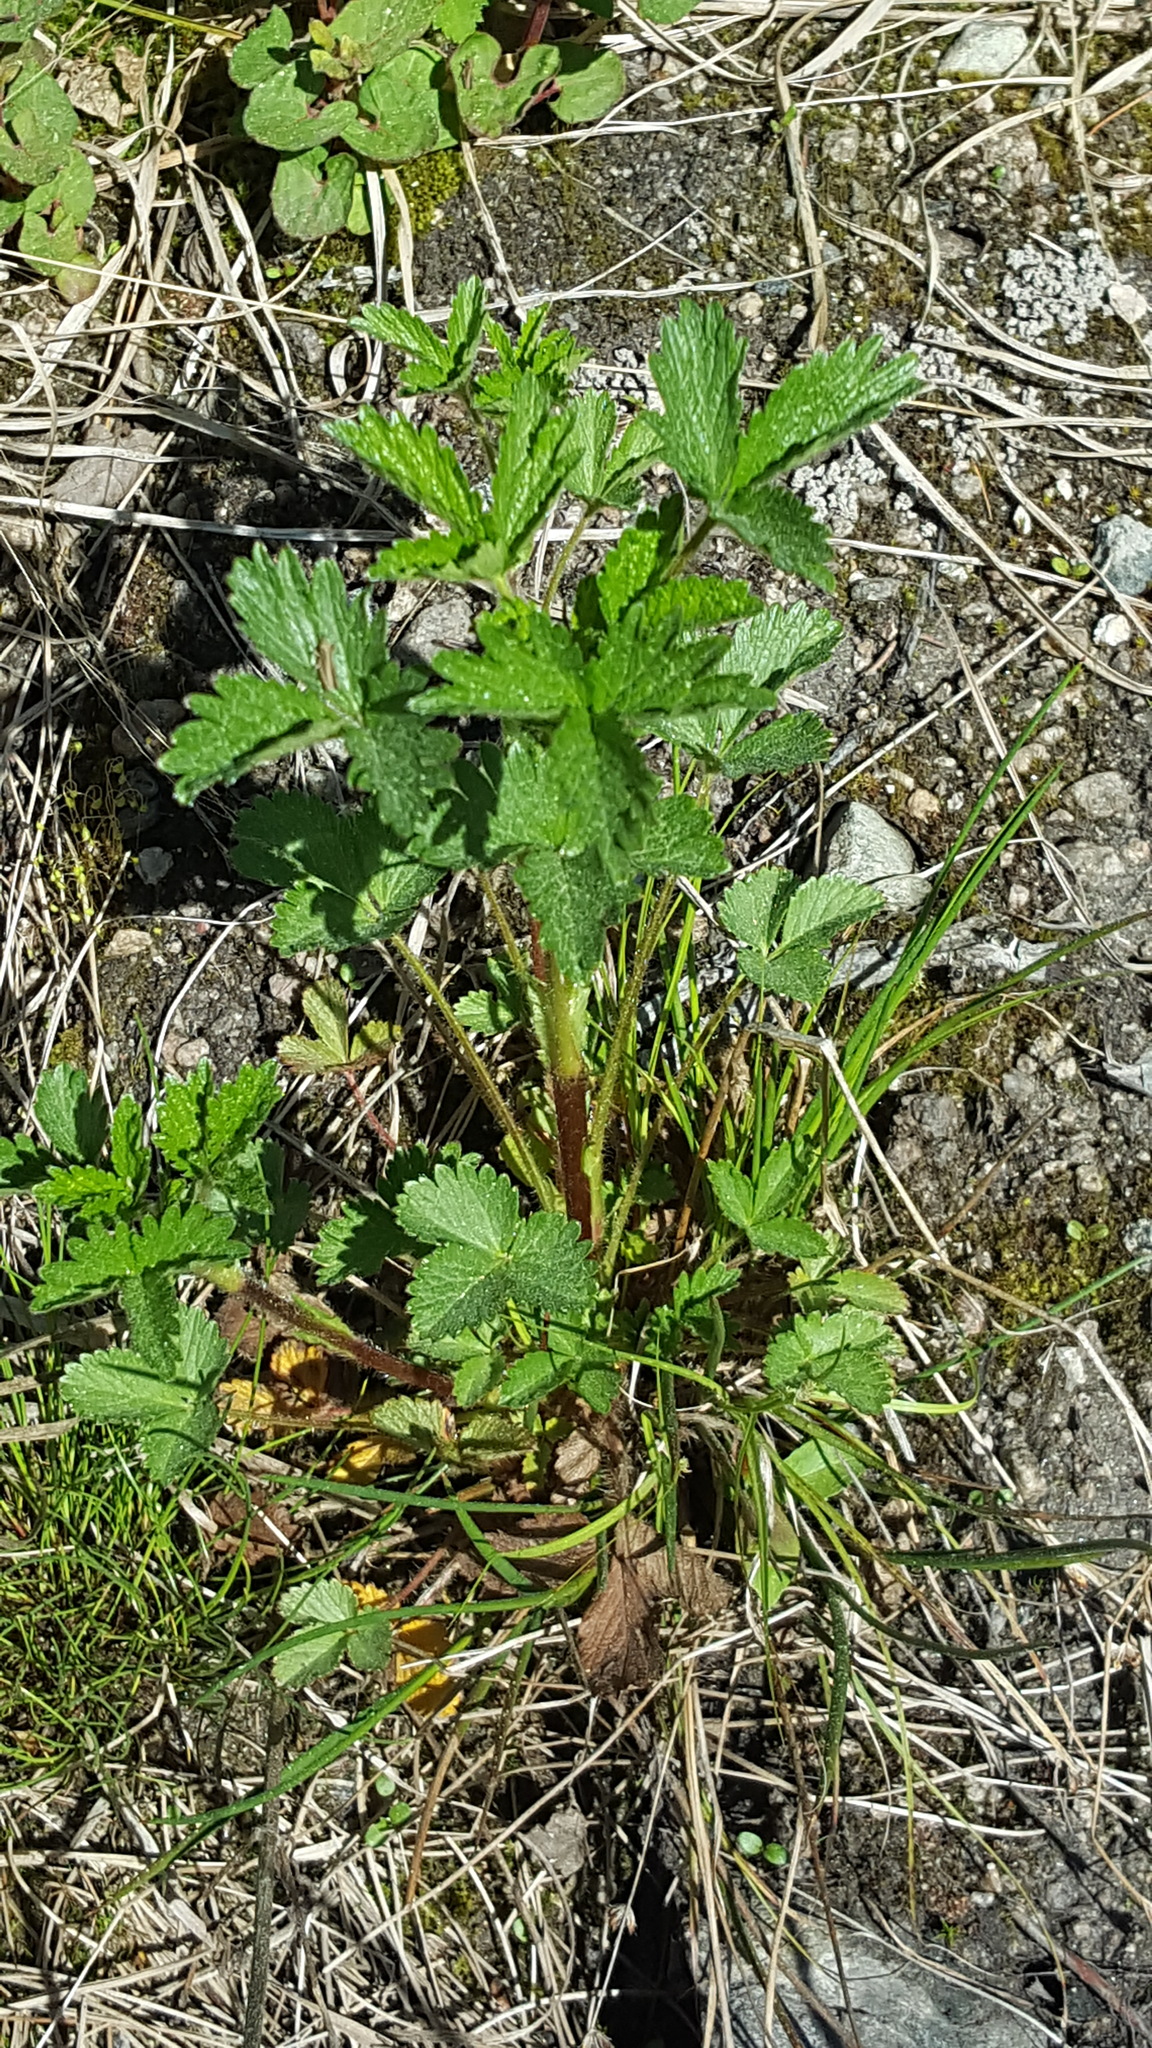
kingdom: Plantae
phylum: Tracheophyta
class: Magnoliopsida
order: Rosales
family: Rosaceae
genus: Potentilla
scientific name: Potentilla norvegica
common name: Ternate-leaved cinquefoil
